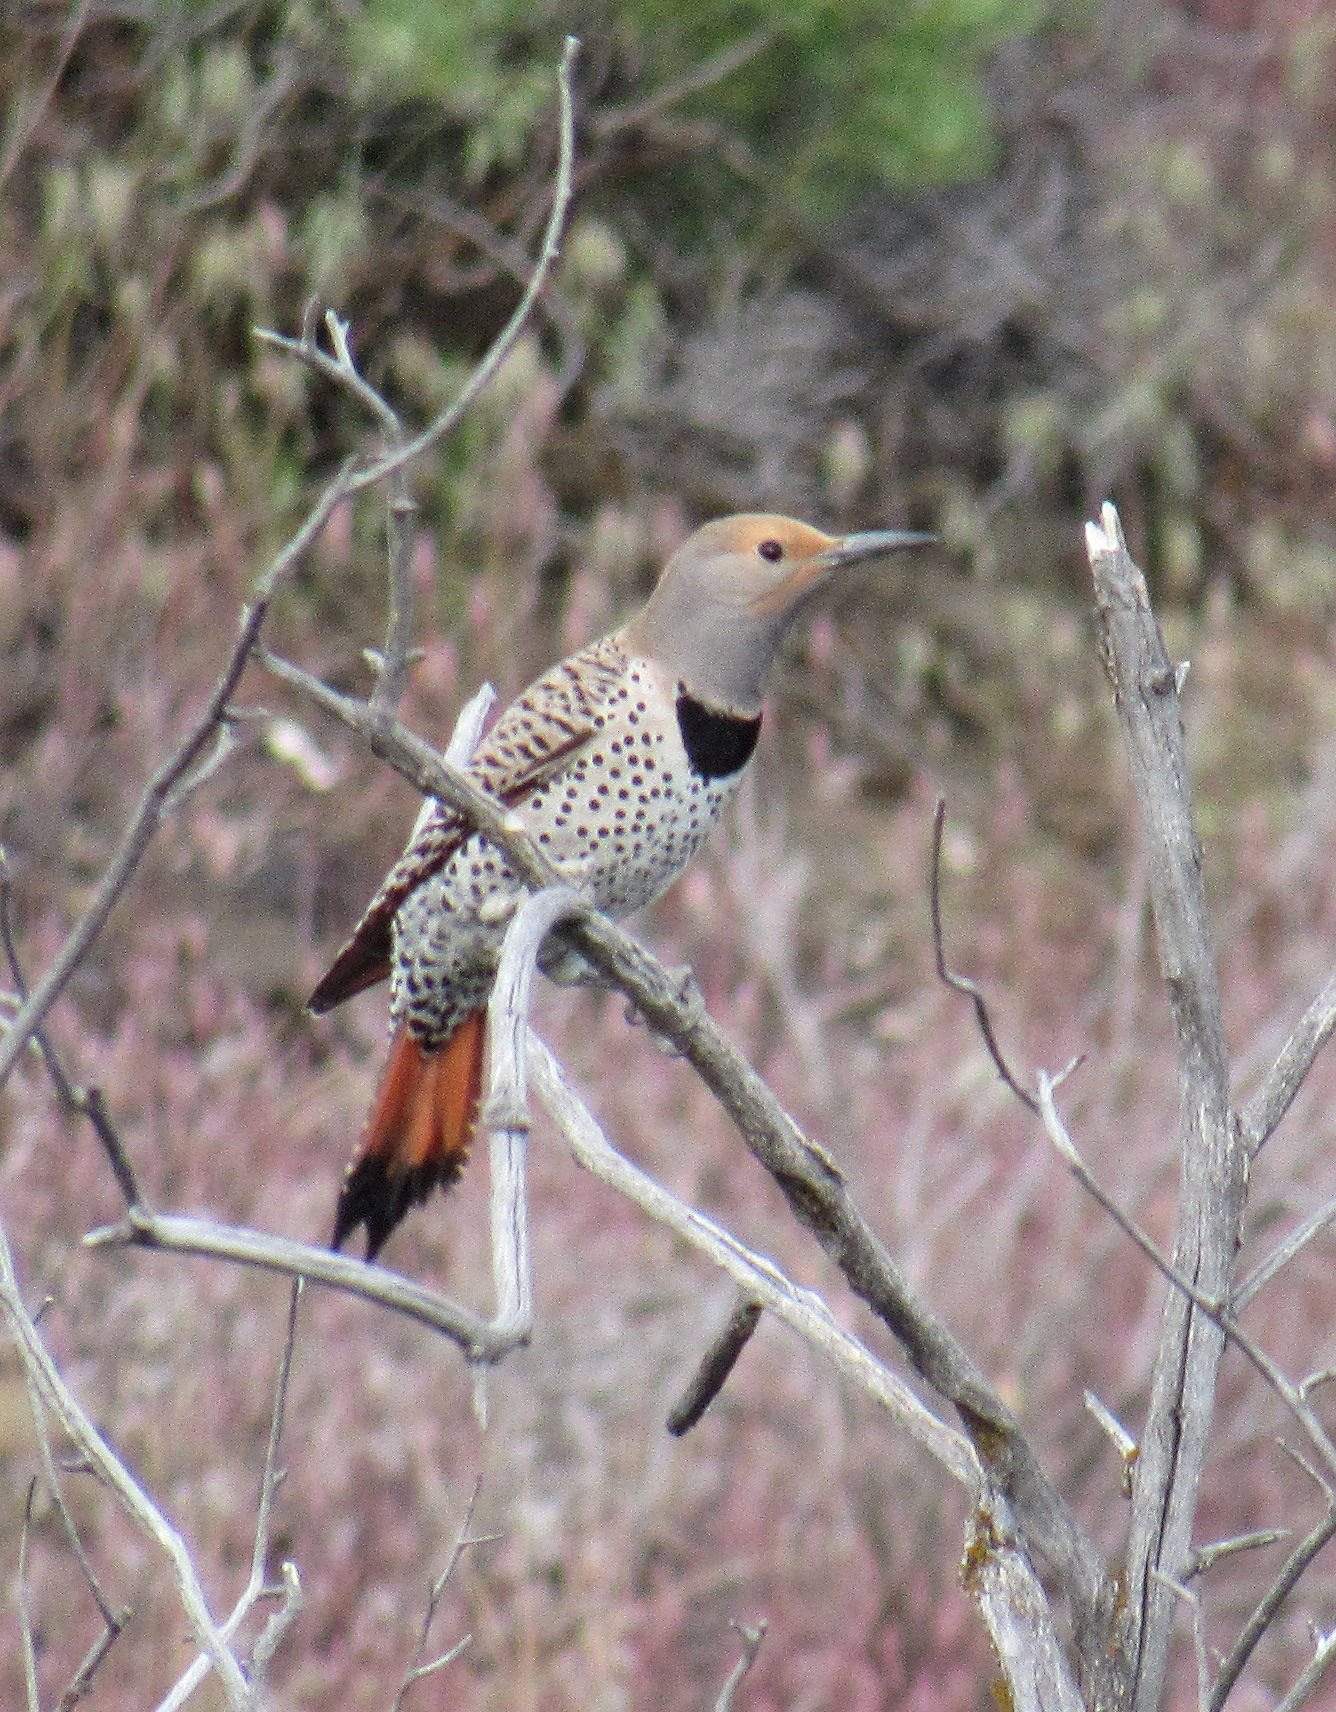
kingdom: Animalia
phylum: Chordata
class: Aves
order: Piciformes
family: Picidae
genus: Colaptes
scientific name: Colaptes auratus
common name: Northern flicker
